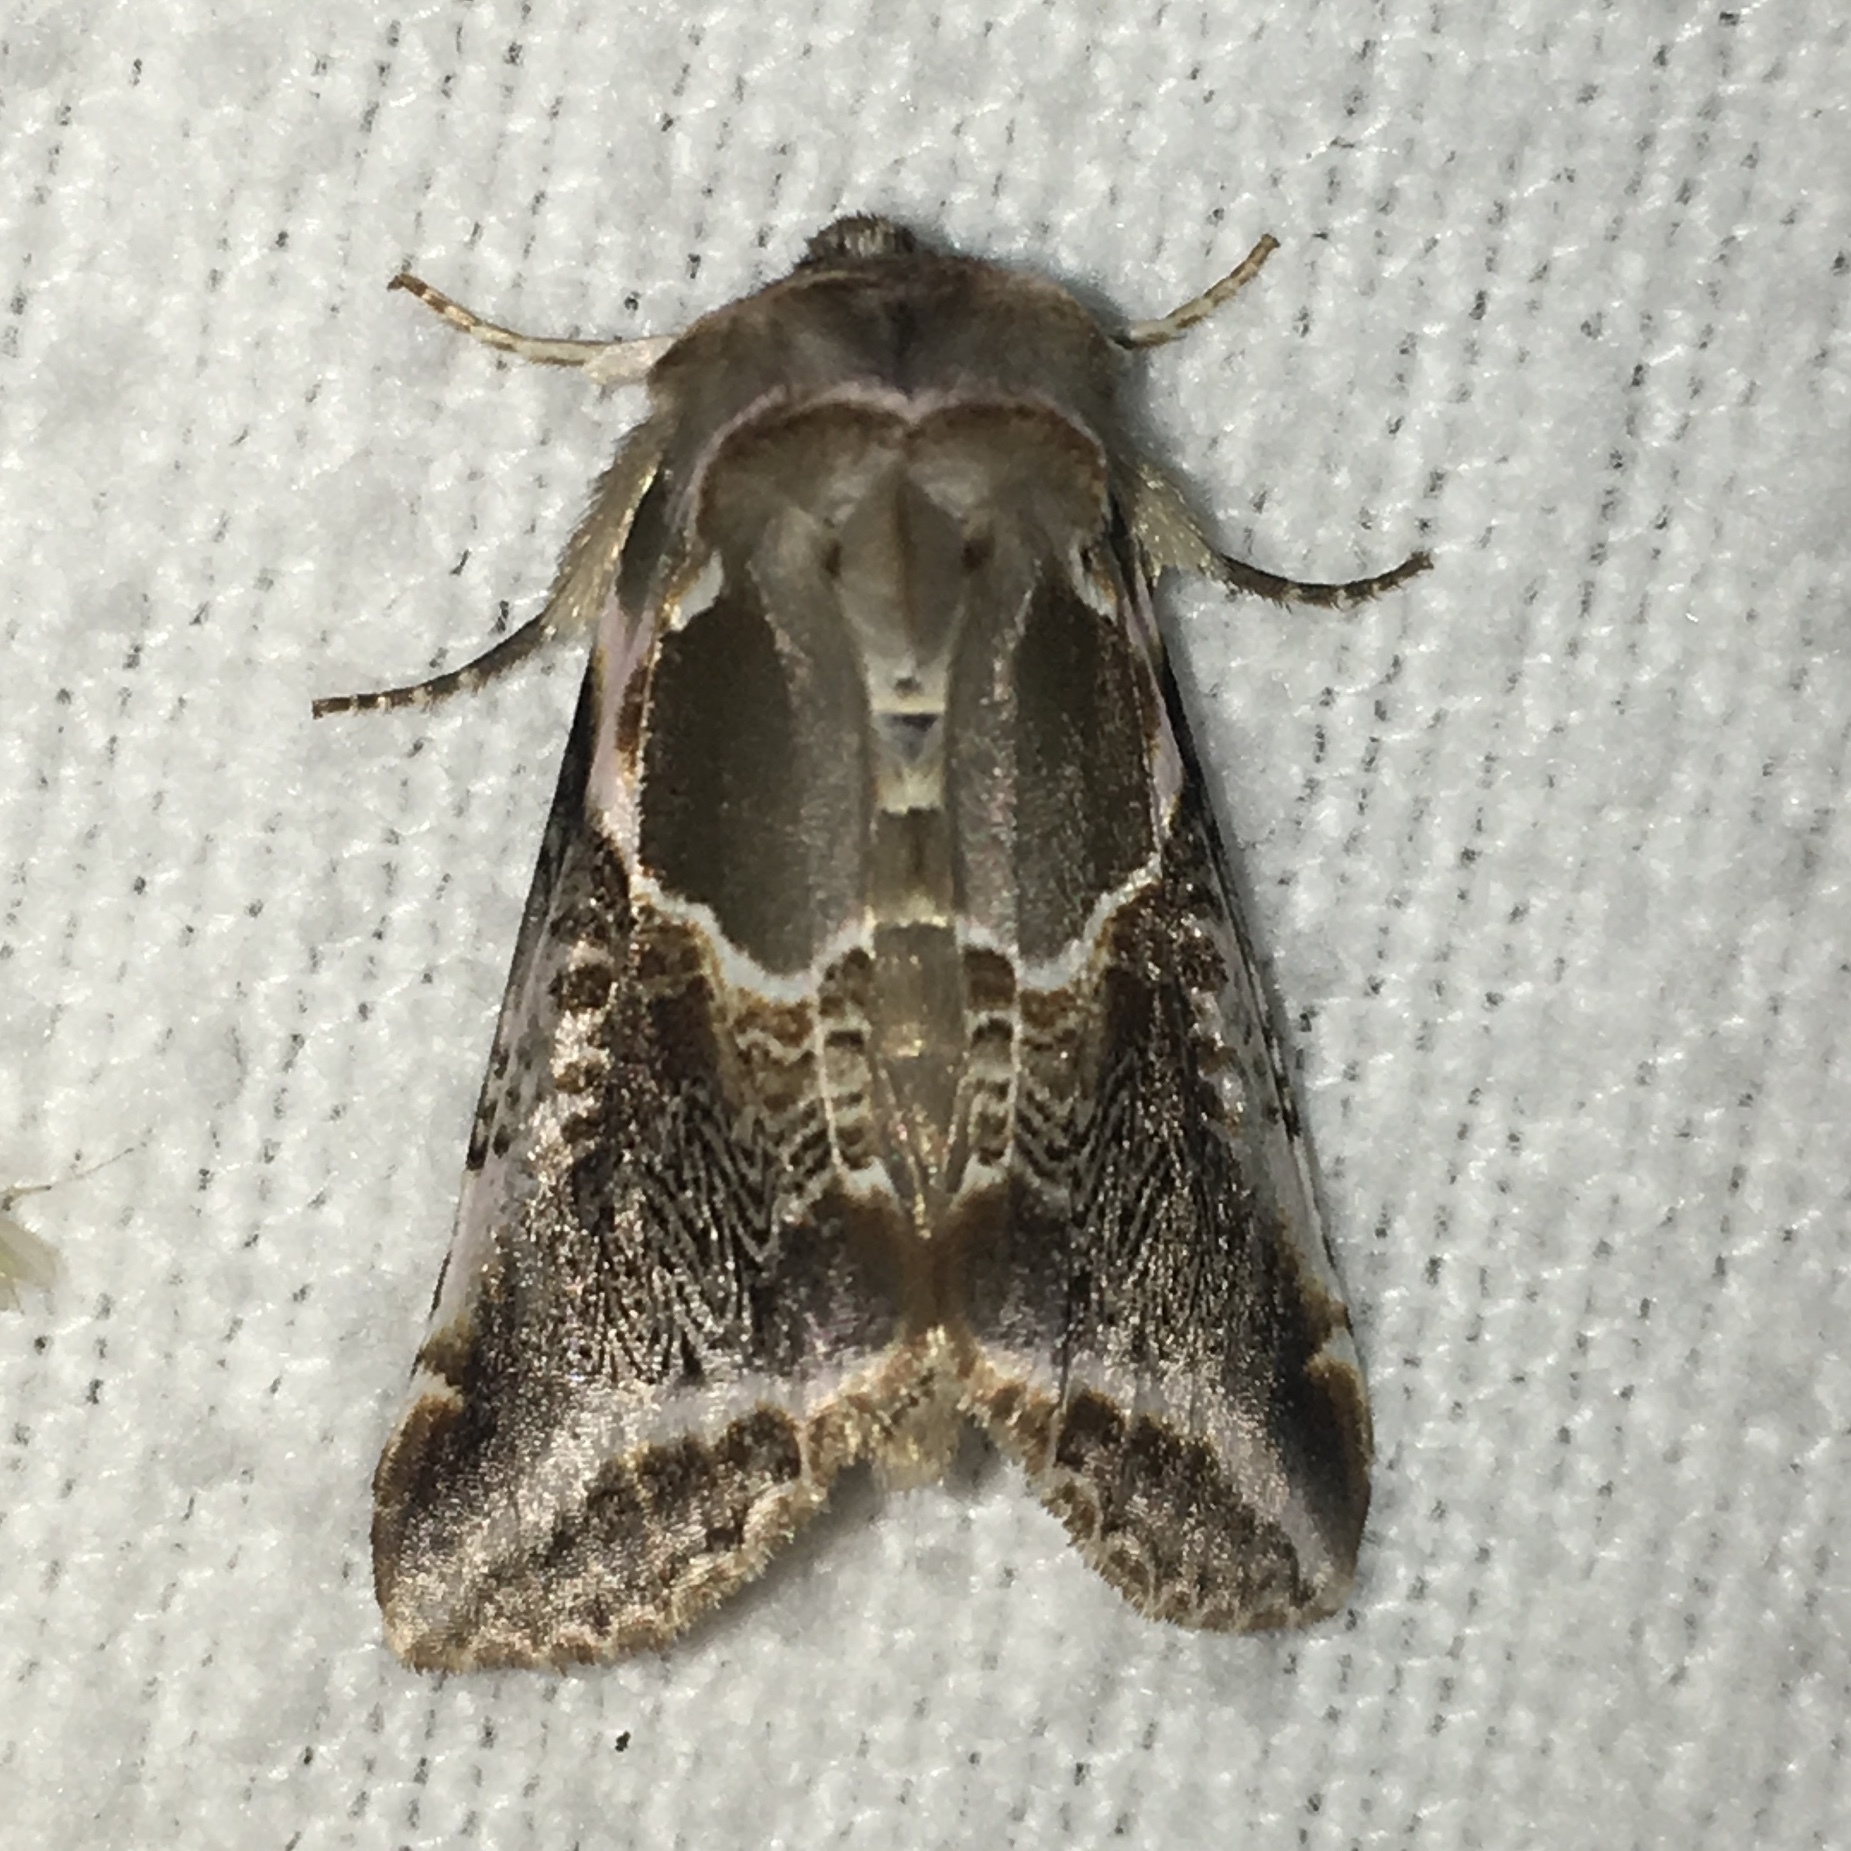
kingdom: Animalia
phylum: Arthropoda
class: Insecta
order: Lepidoptera
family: Drepanidae
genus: Habrosyne
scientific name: Habrosyne scripta
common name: Lettered habrosyne moth
